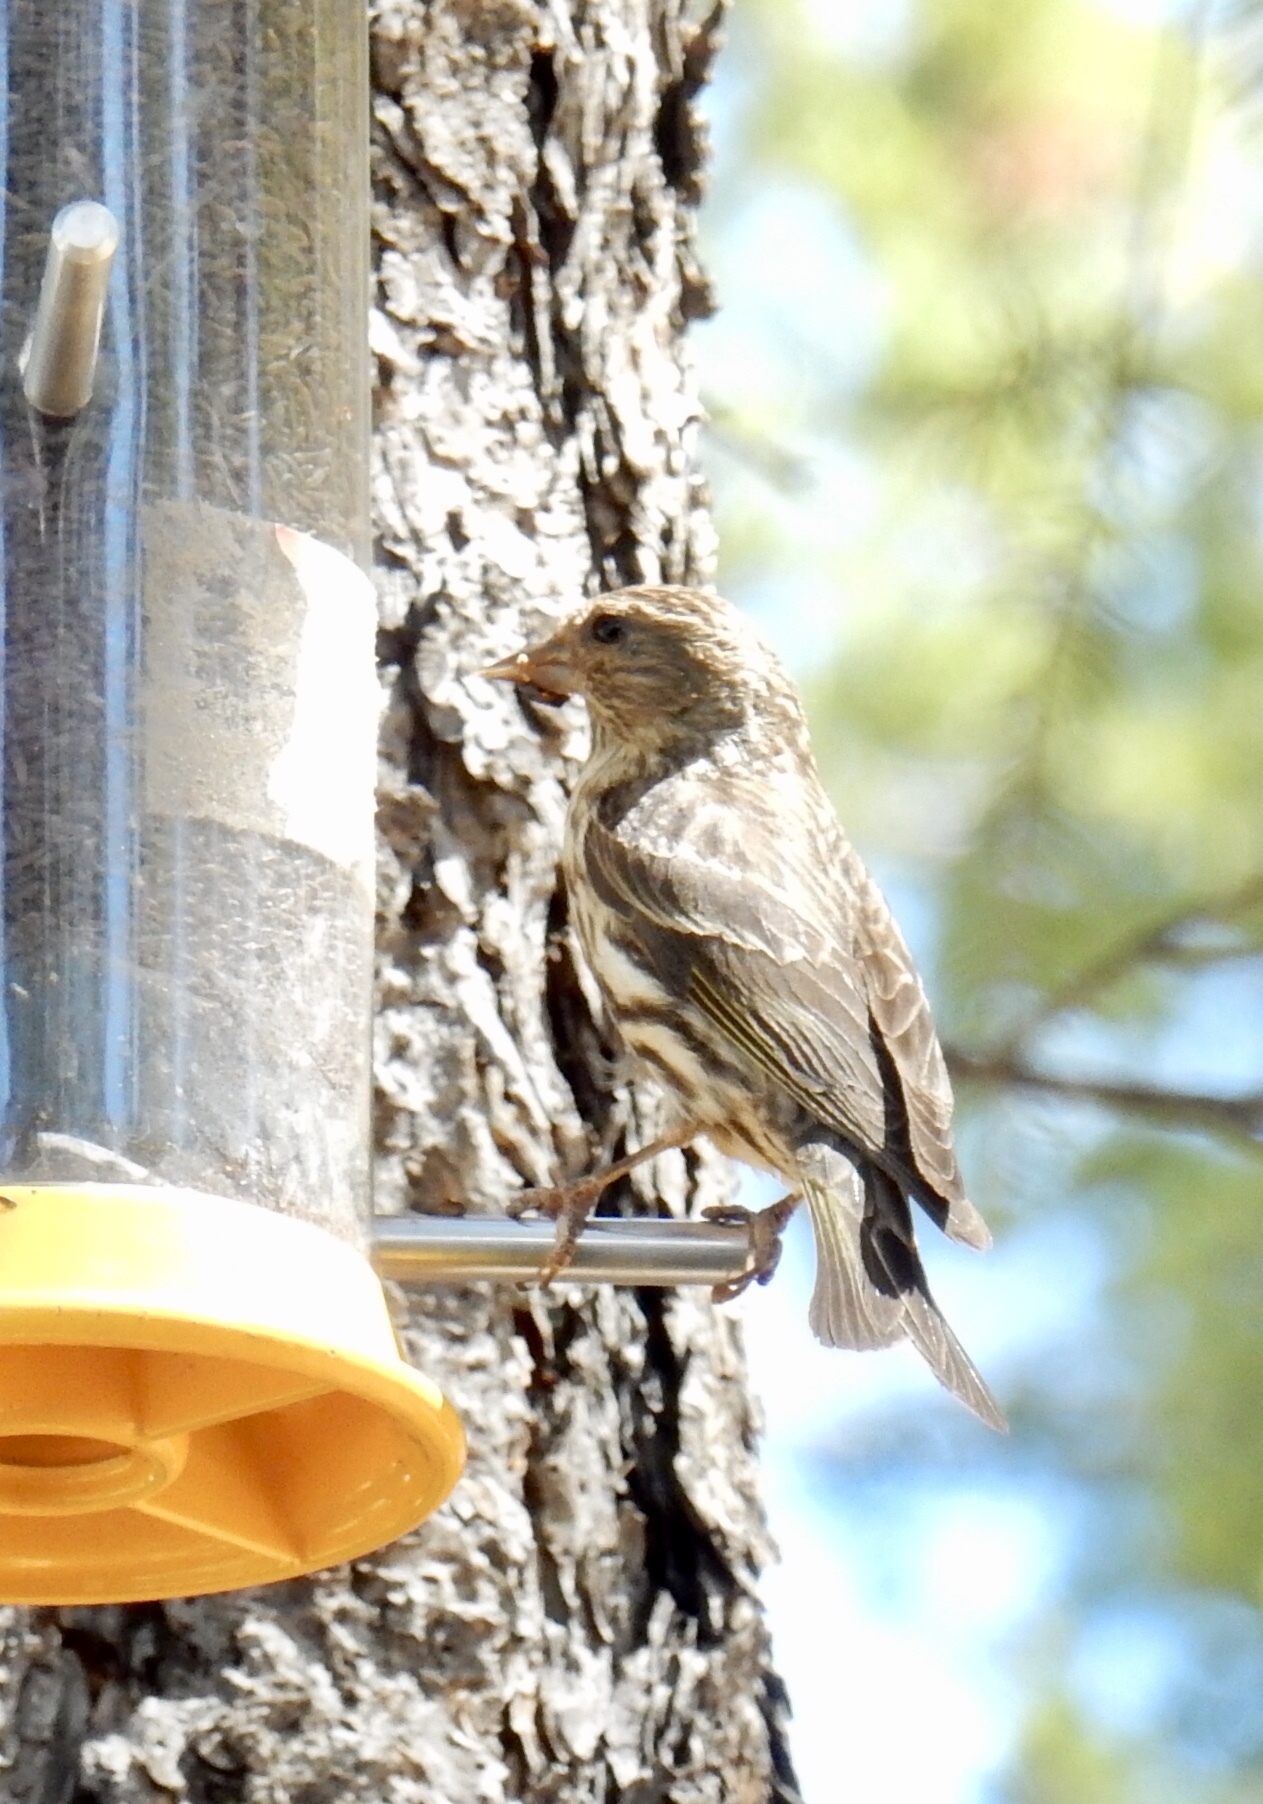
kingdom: Animalia
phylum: Chordata
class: Aves
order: Passeriformes
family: Fringillidae
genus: Spinus
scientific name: Spinus pinus
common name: Pine siskin
